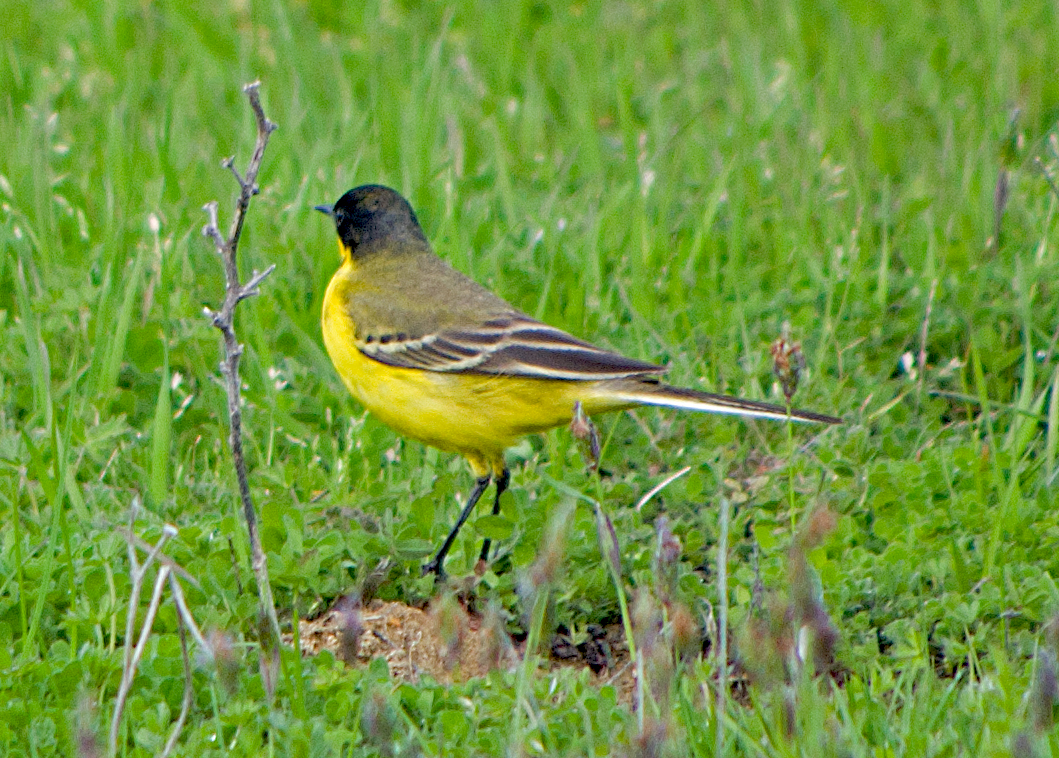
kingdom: Animalia
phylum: Chordata
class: Aves
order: Passeriformes
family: Motacillidae
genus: Motacilla
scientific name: Motacilla flava
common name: Western yellow wagtail
